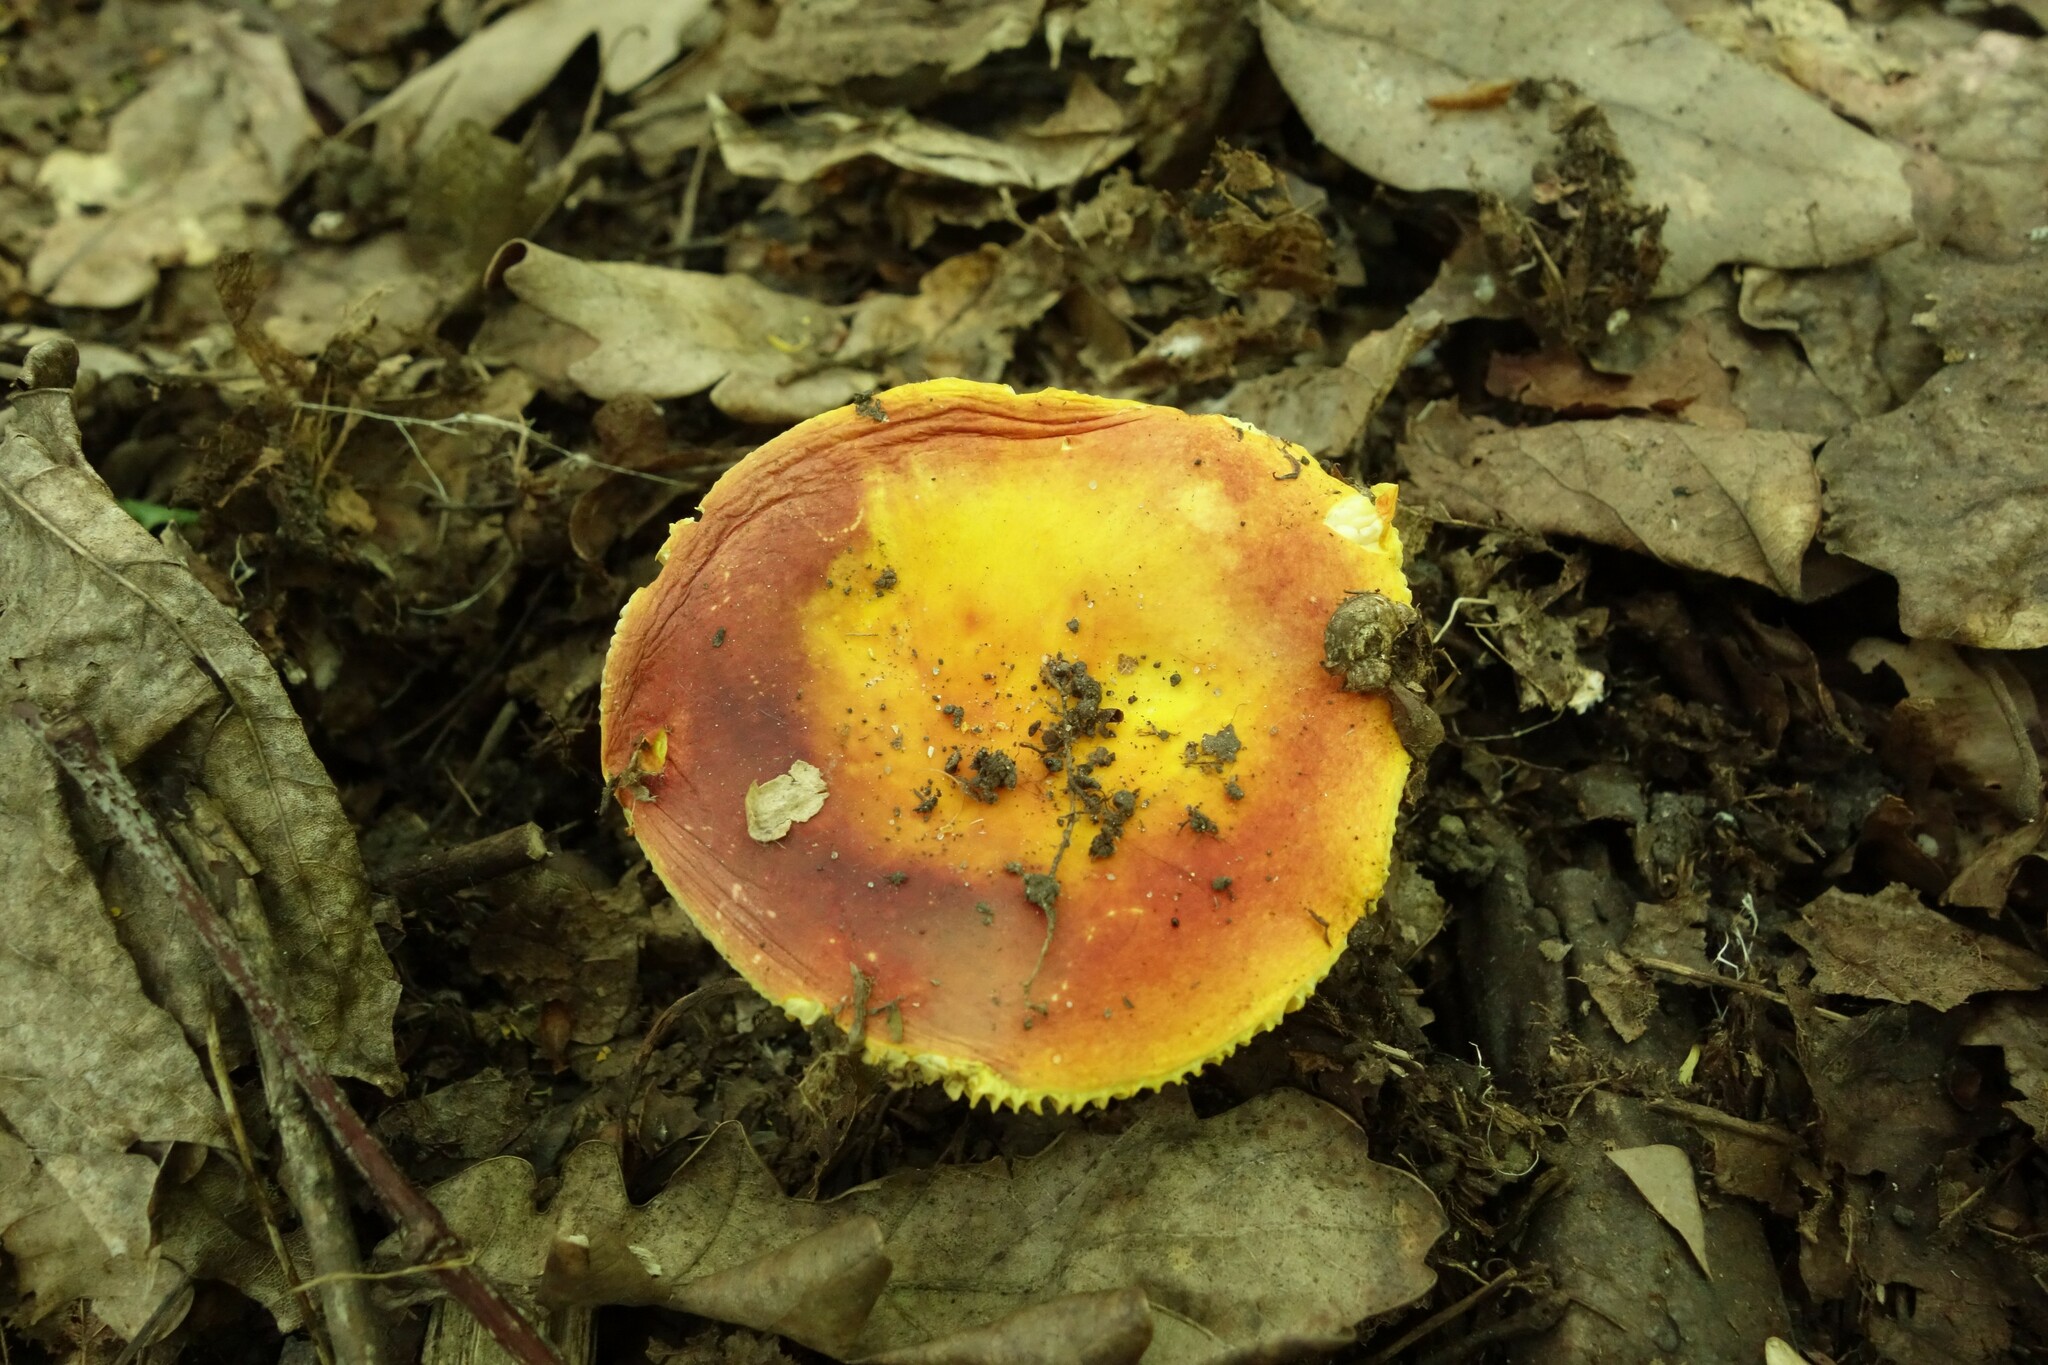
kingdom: Fungi
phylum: Basidiomycota
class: Agaricomycetes
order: Russulales
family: Russulaceae
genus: Russula
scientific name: Russula aurea
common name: Gilded brittlegill
